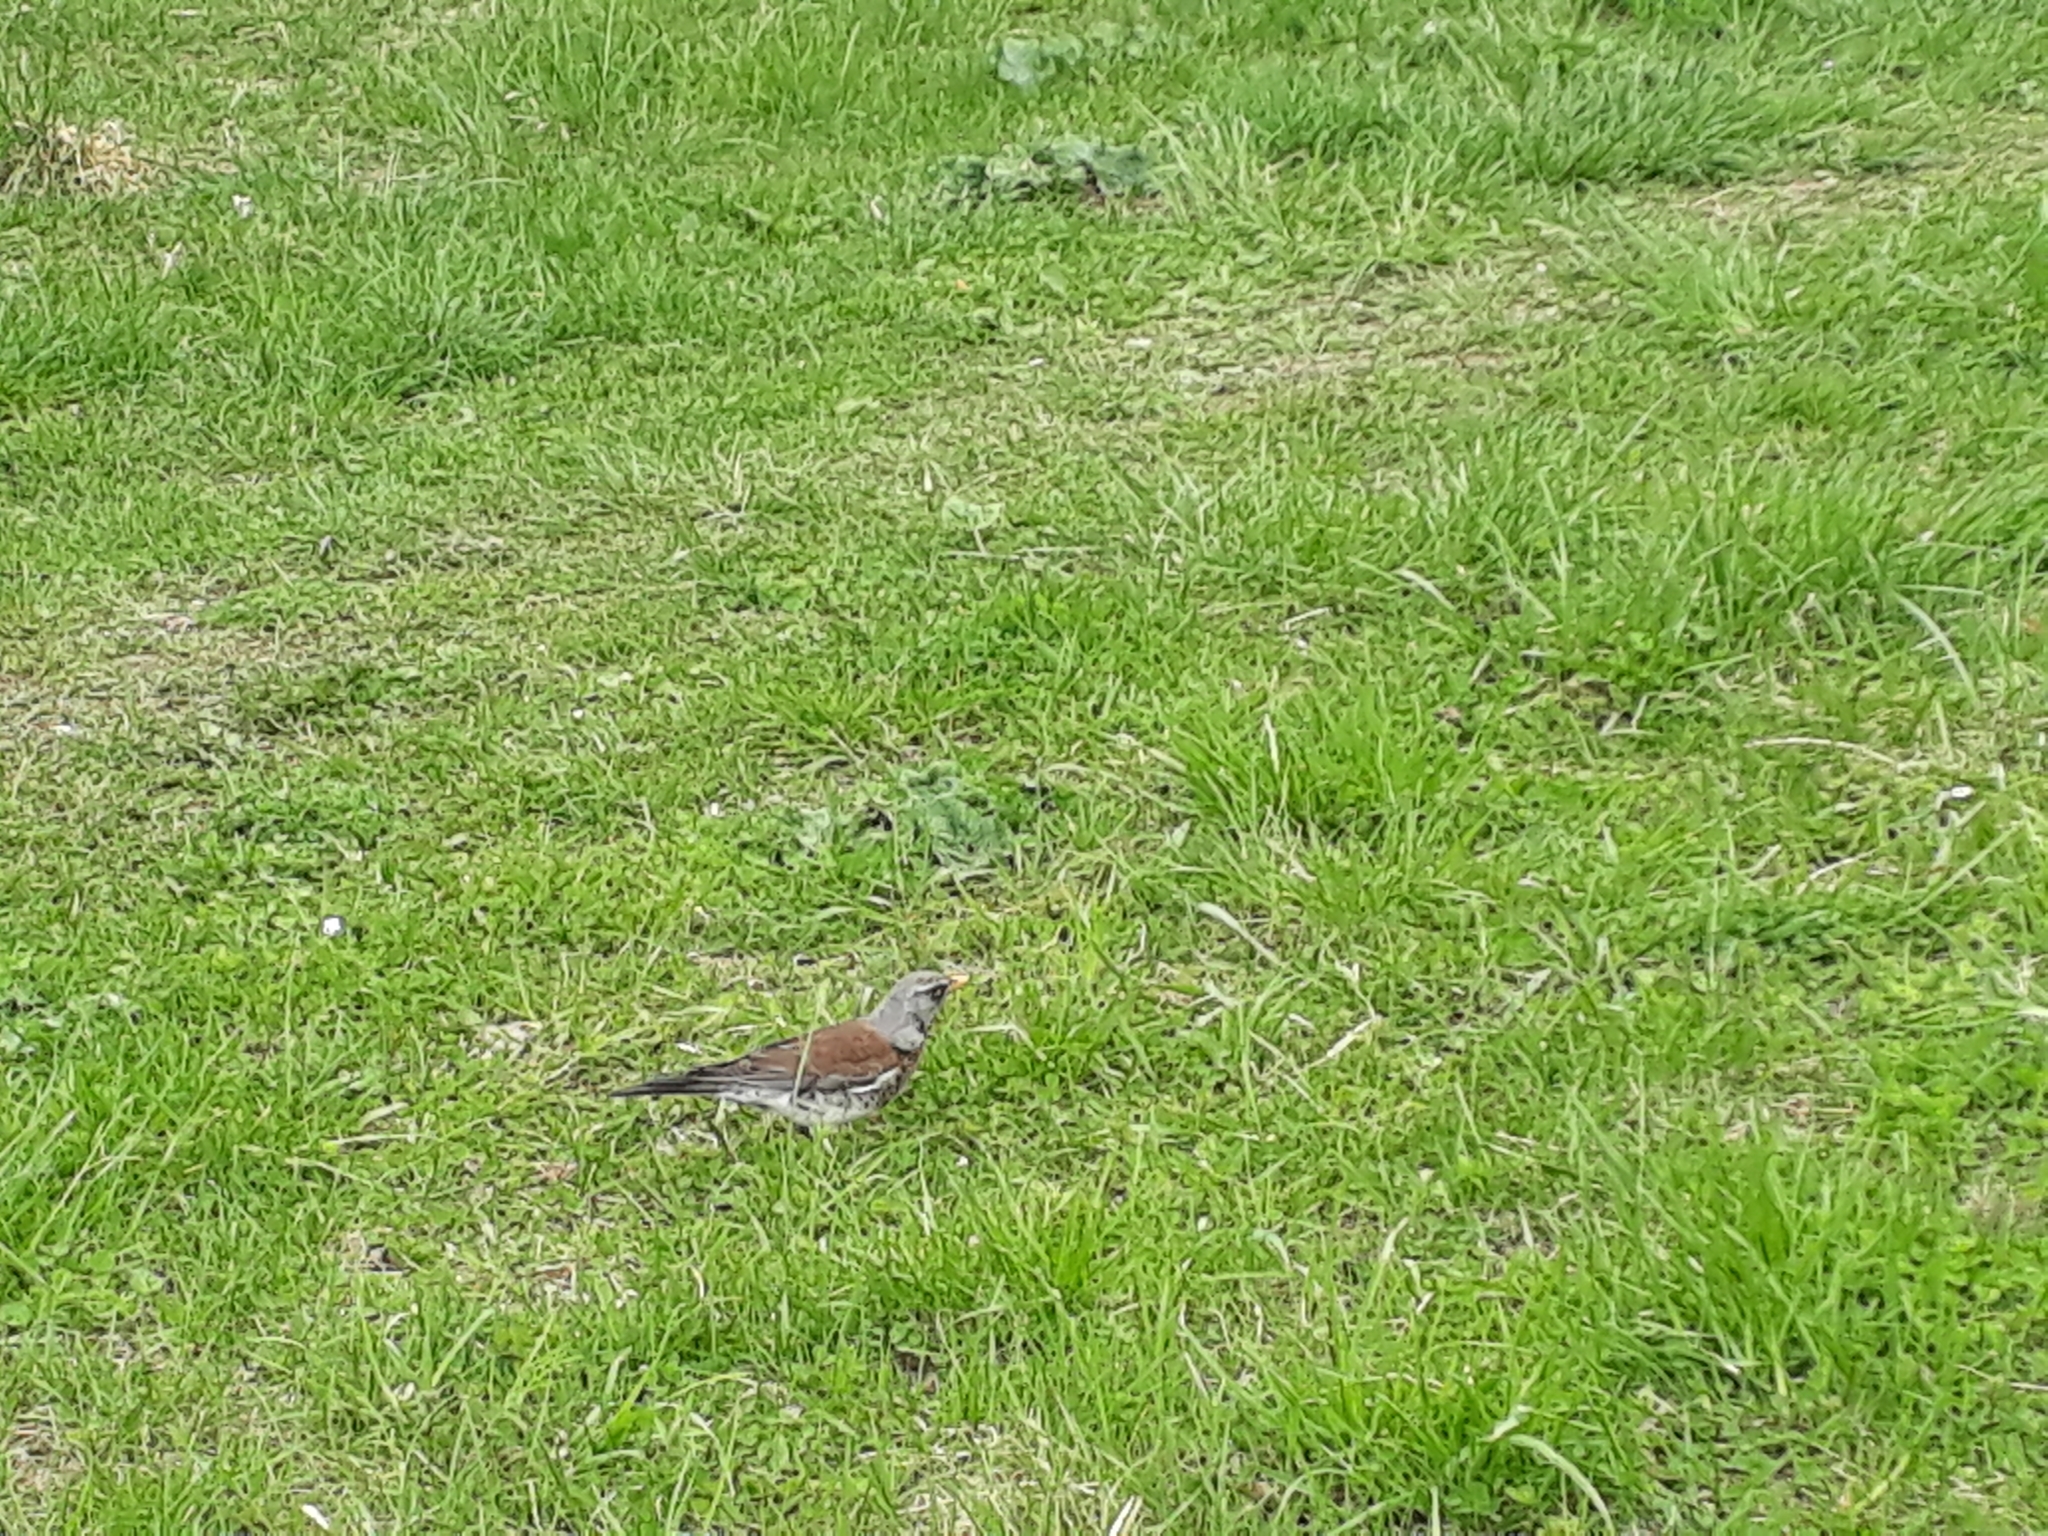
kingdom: Animalia
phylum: Chordata
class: Aves
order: Passeriformes
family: Turdidae
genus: Turdus
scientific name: Turdus pilaris
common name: Fieldfare
